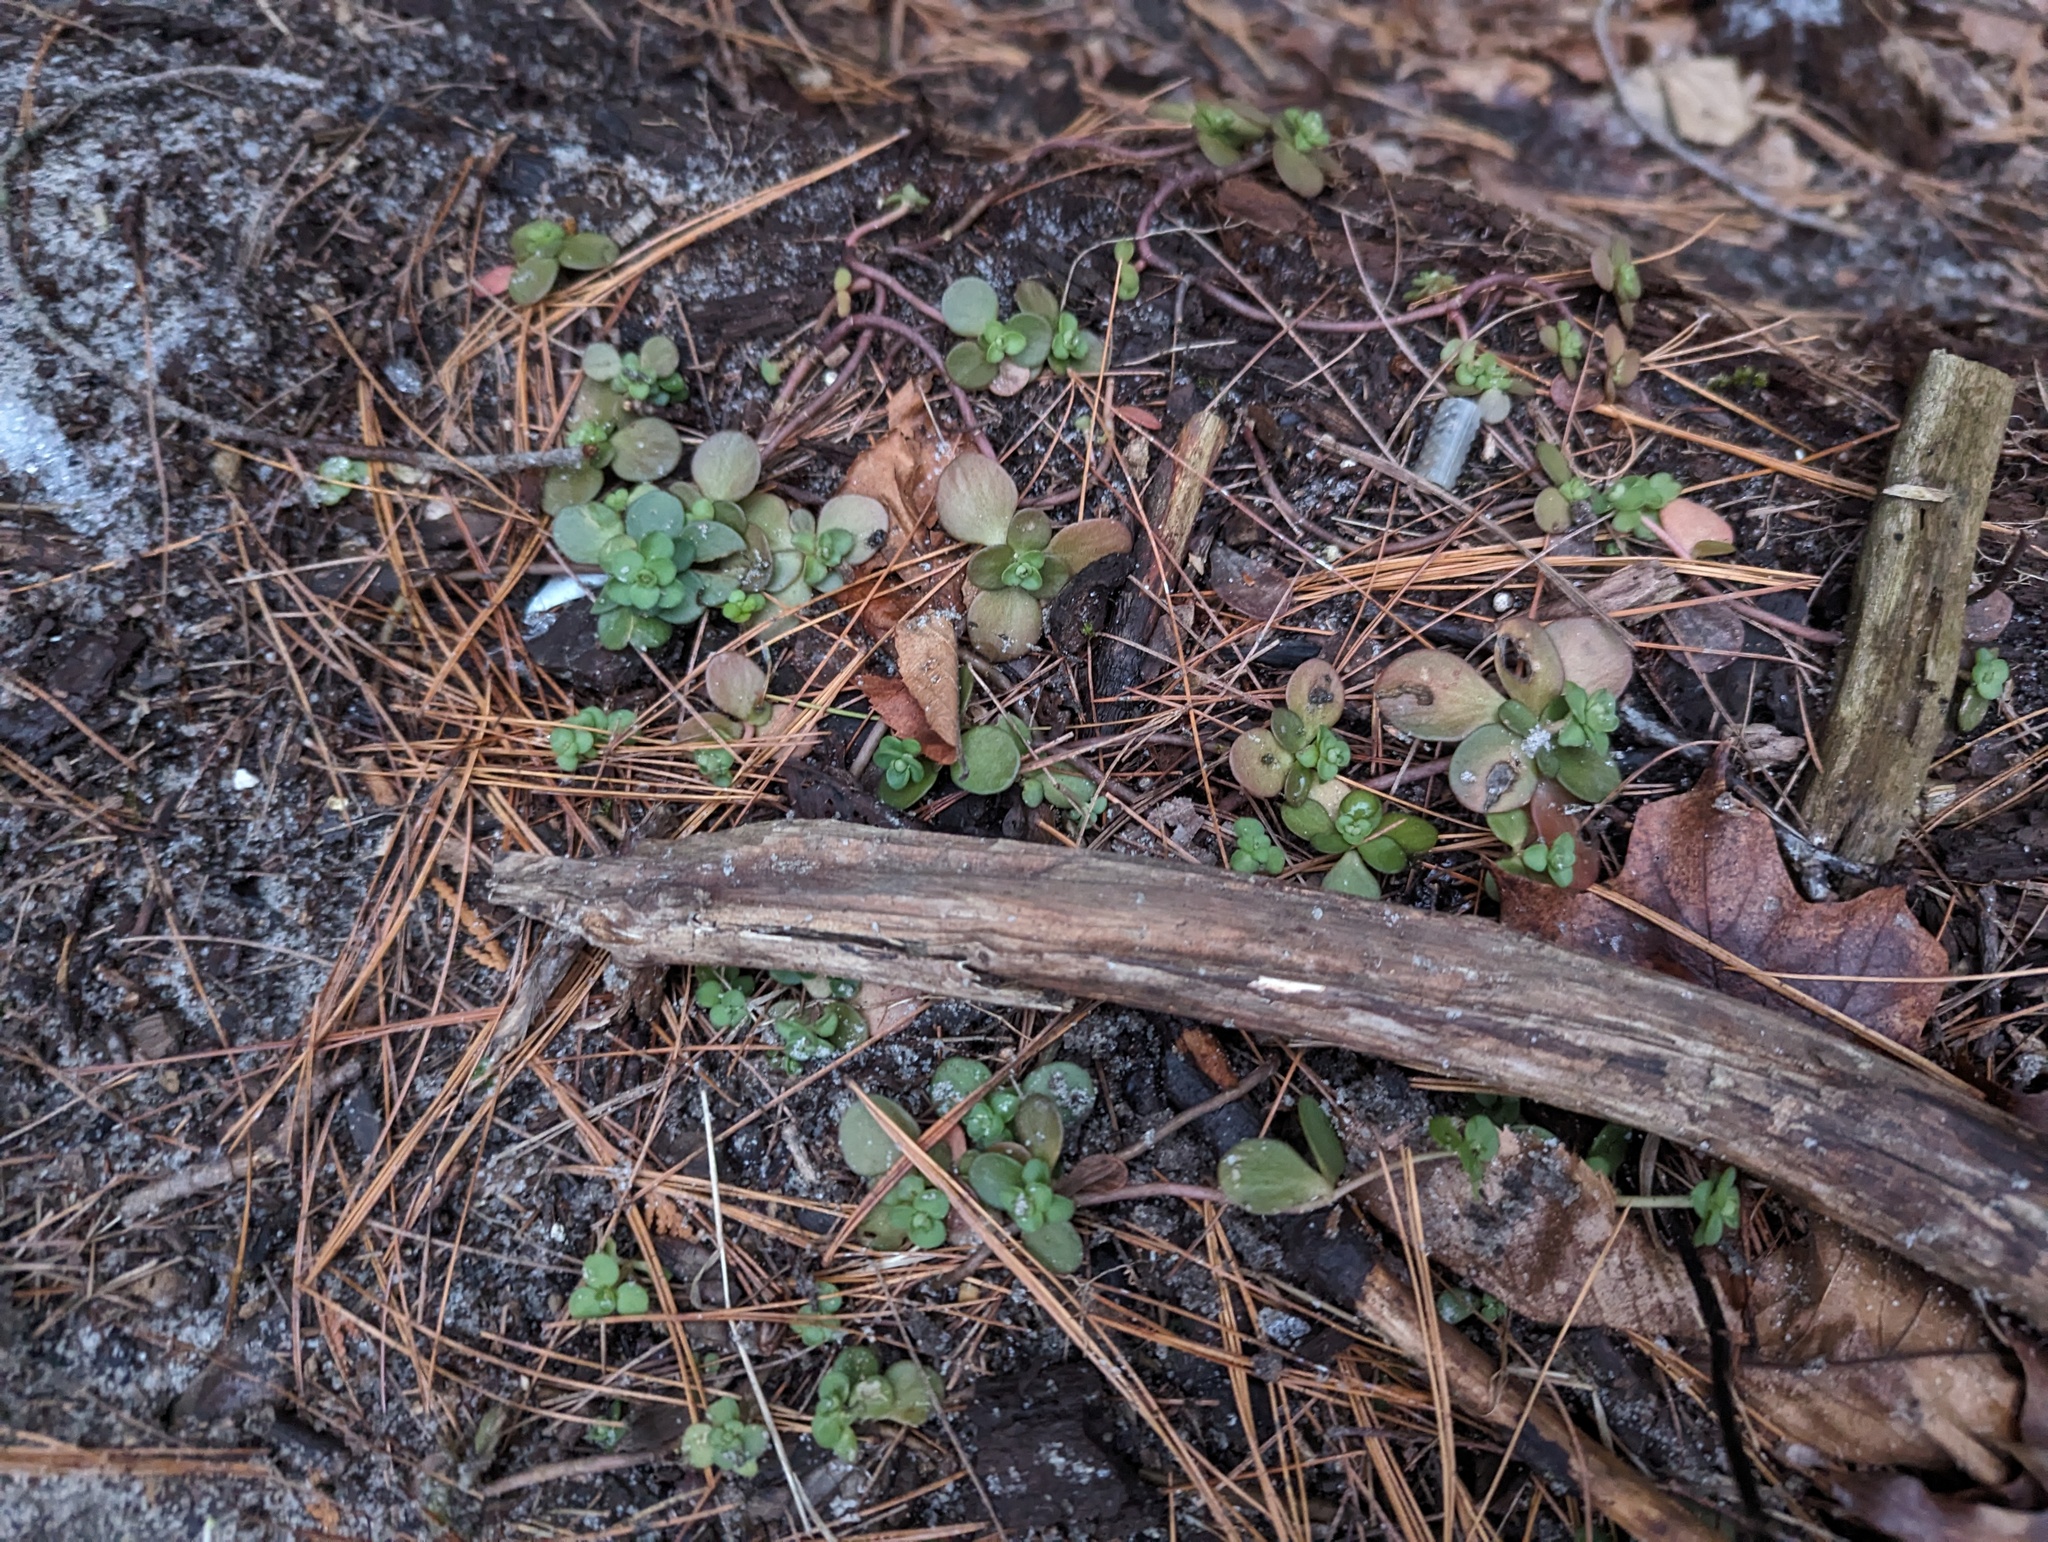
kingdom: Plantae
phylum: Tracheophyta
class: Magnoliopsida
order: Saxifragales
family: Crassulaceae
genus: Sedum
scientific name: Sedum ternatum
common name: Wild stonecrop
